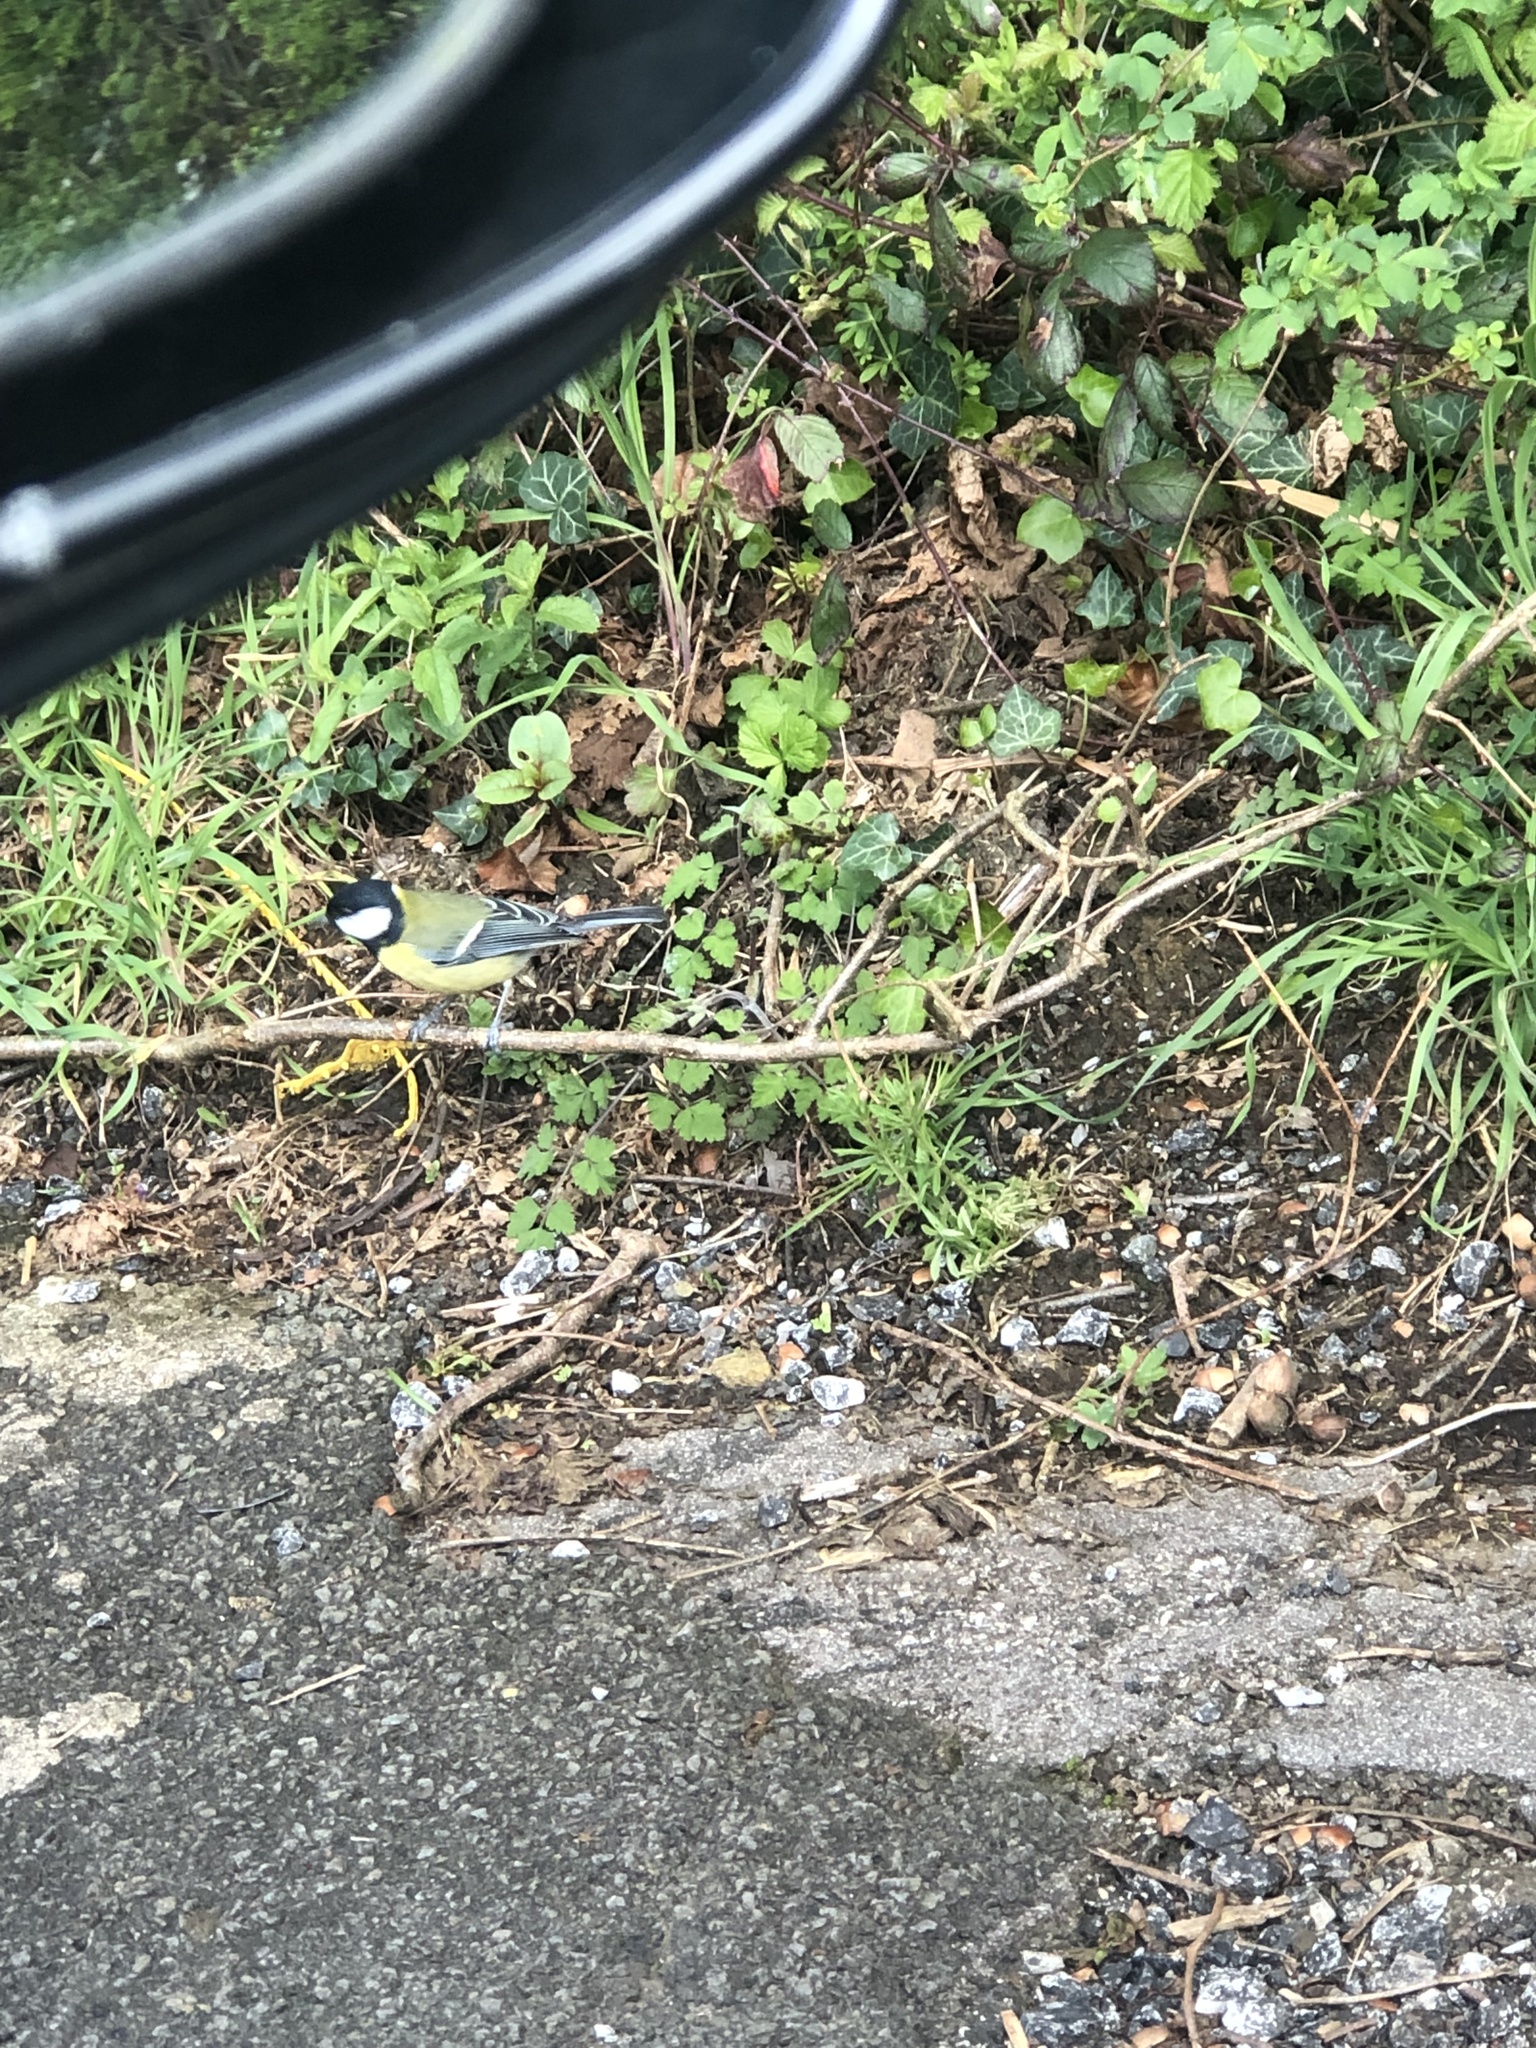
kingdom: Animalia
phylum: Chordata
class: Aves
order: Passeriformes
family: Paridae
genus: Parus
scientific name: Parus major
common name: Great tit
